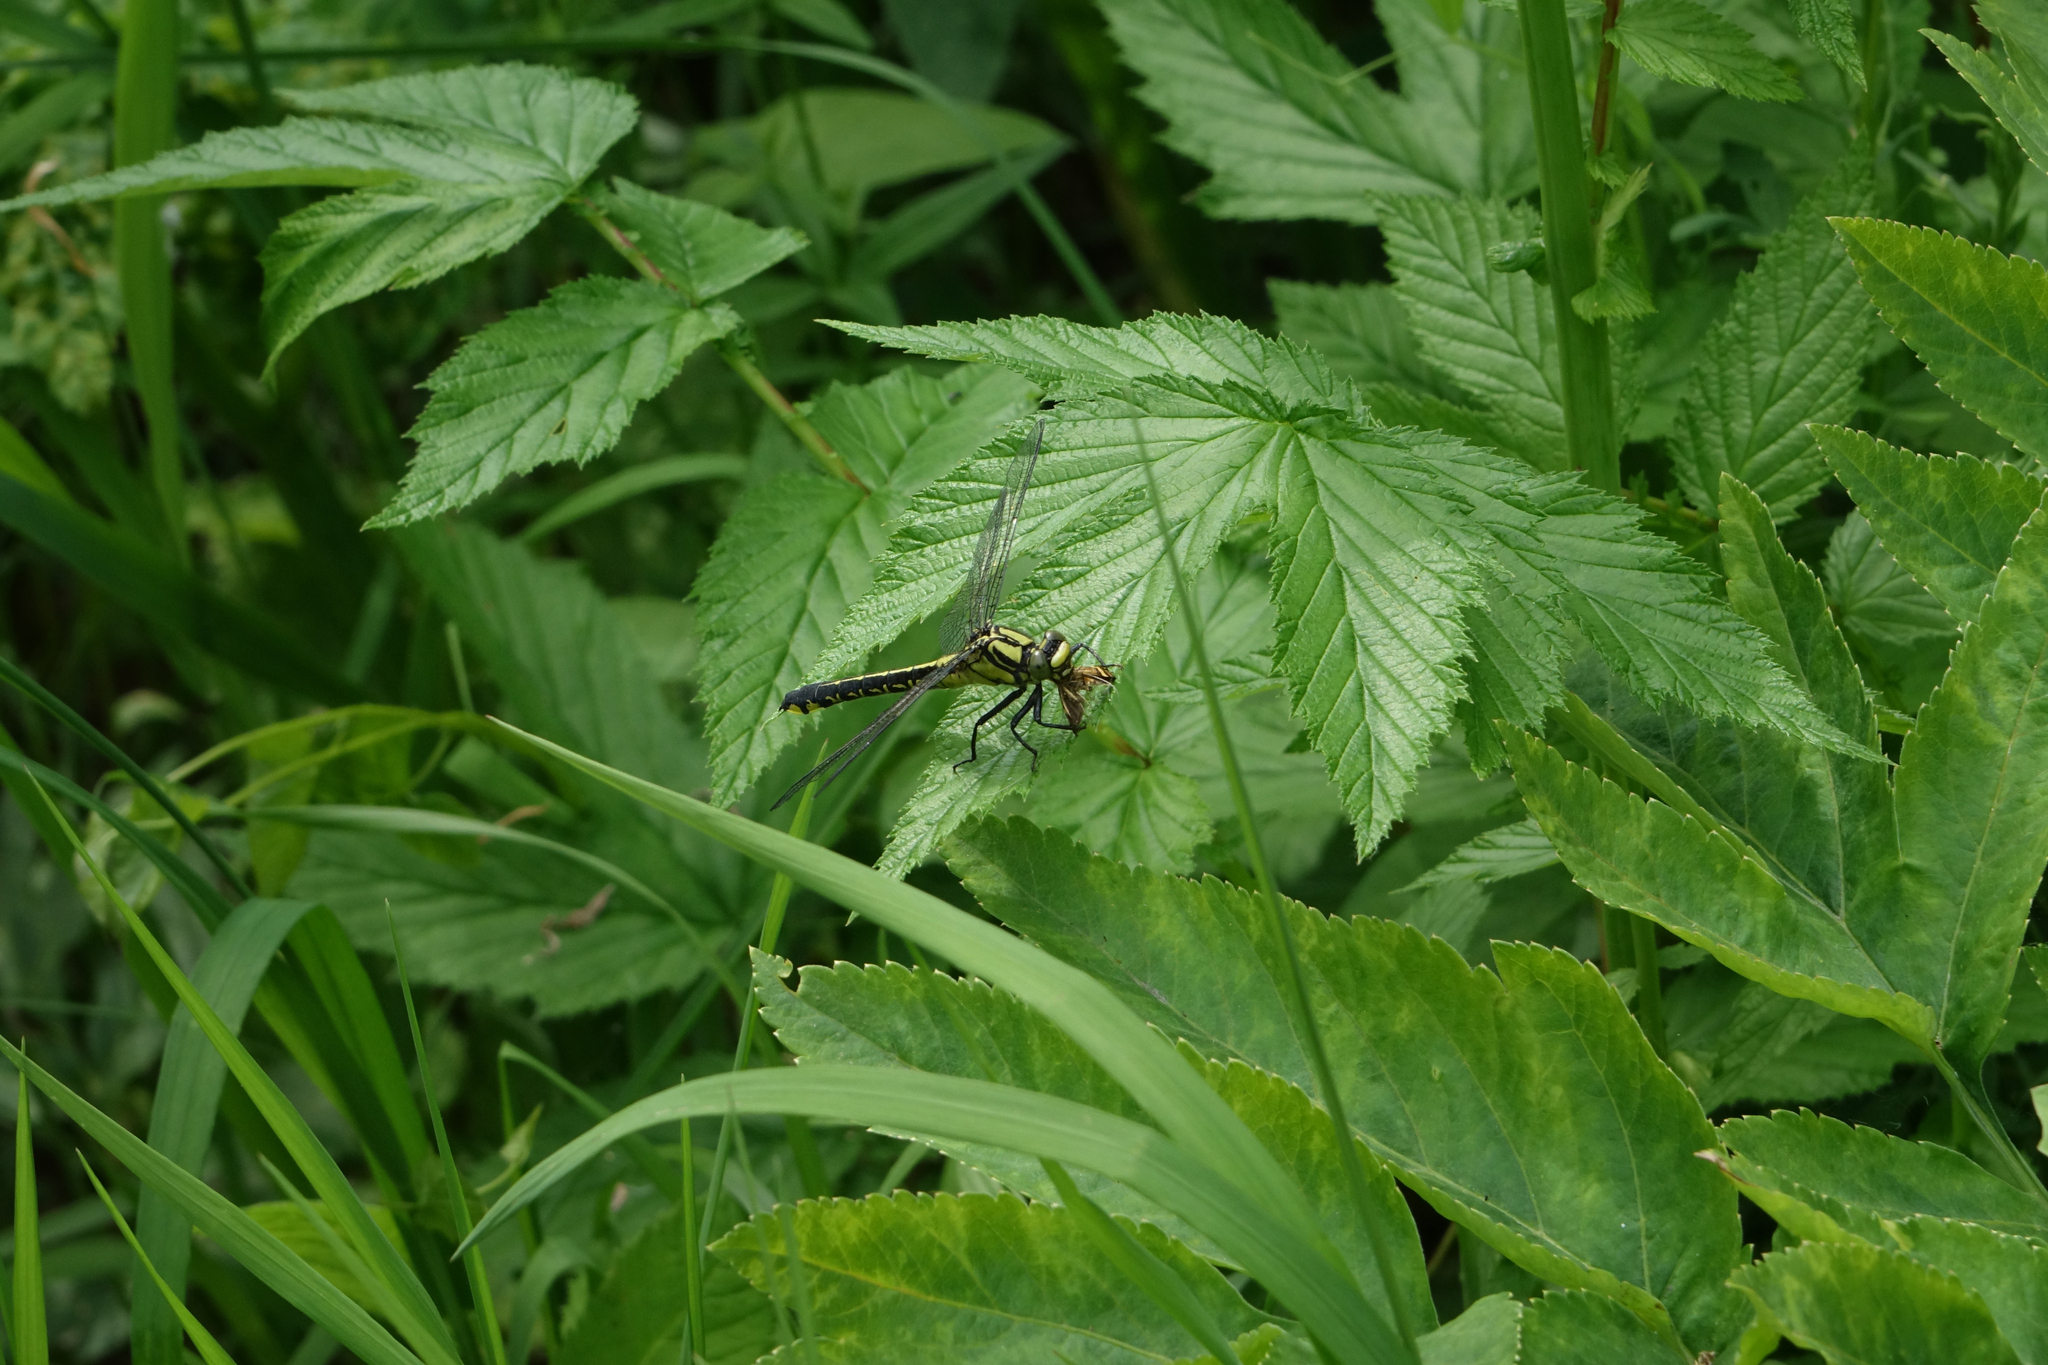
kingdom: Animalia
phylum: Arthropoda
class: Insecta
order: Odonata
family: Gomphidae
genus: Gomphus
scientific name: Gomphus vulgatissimus
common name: Club-tailed dragonfly
